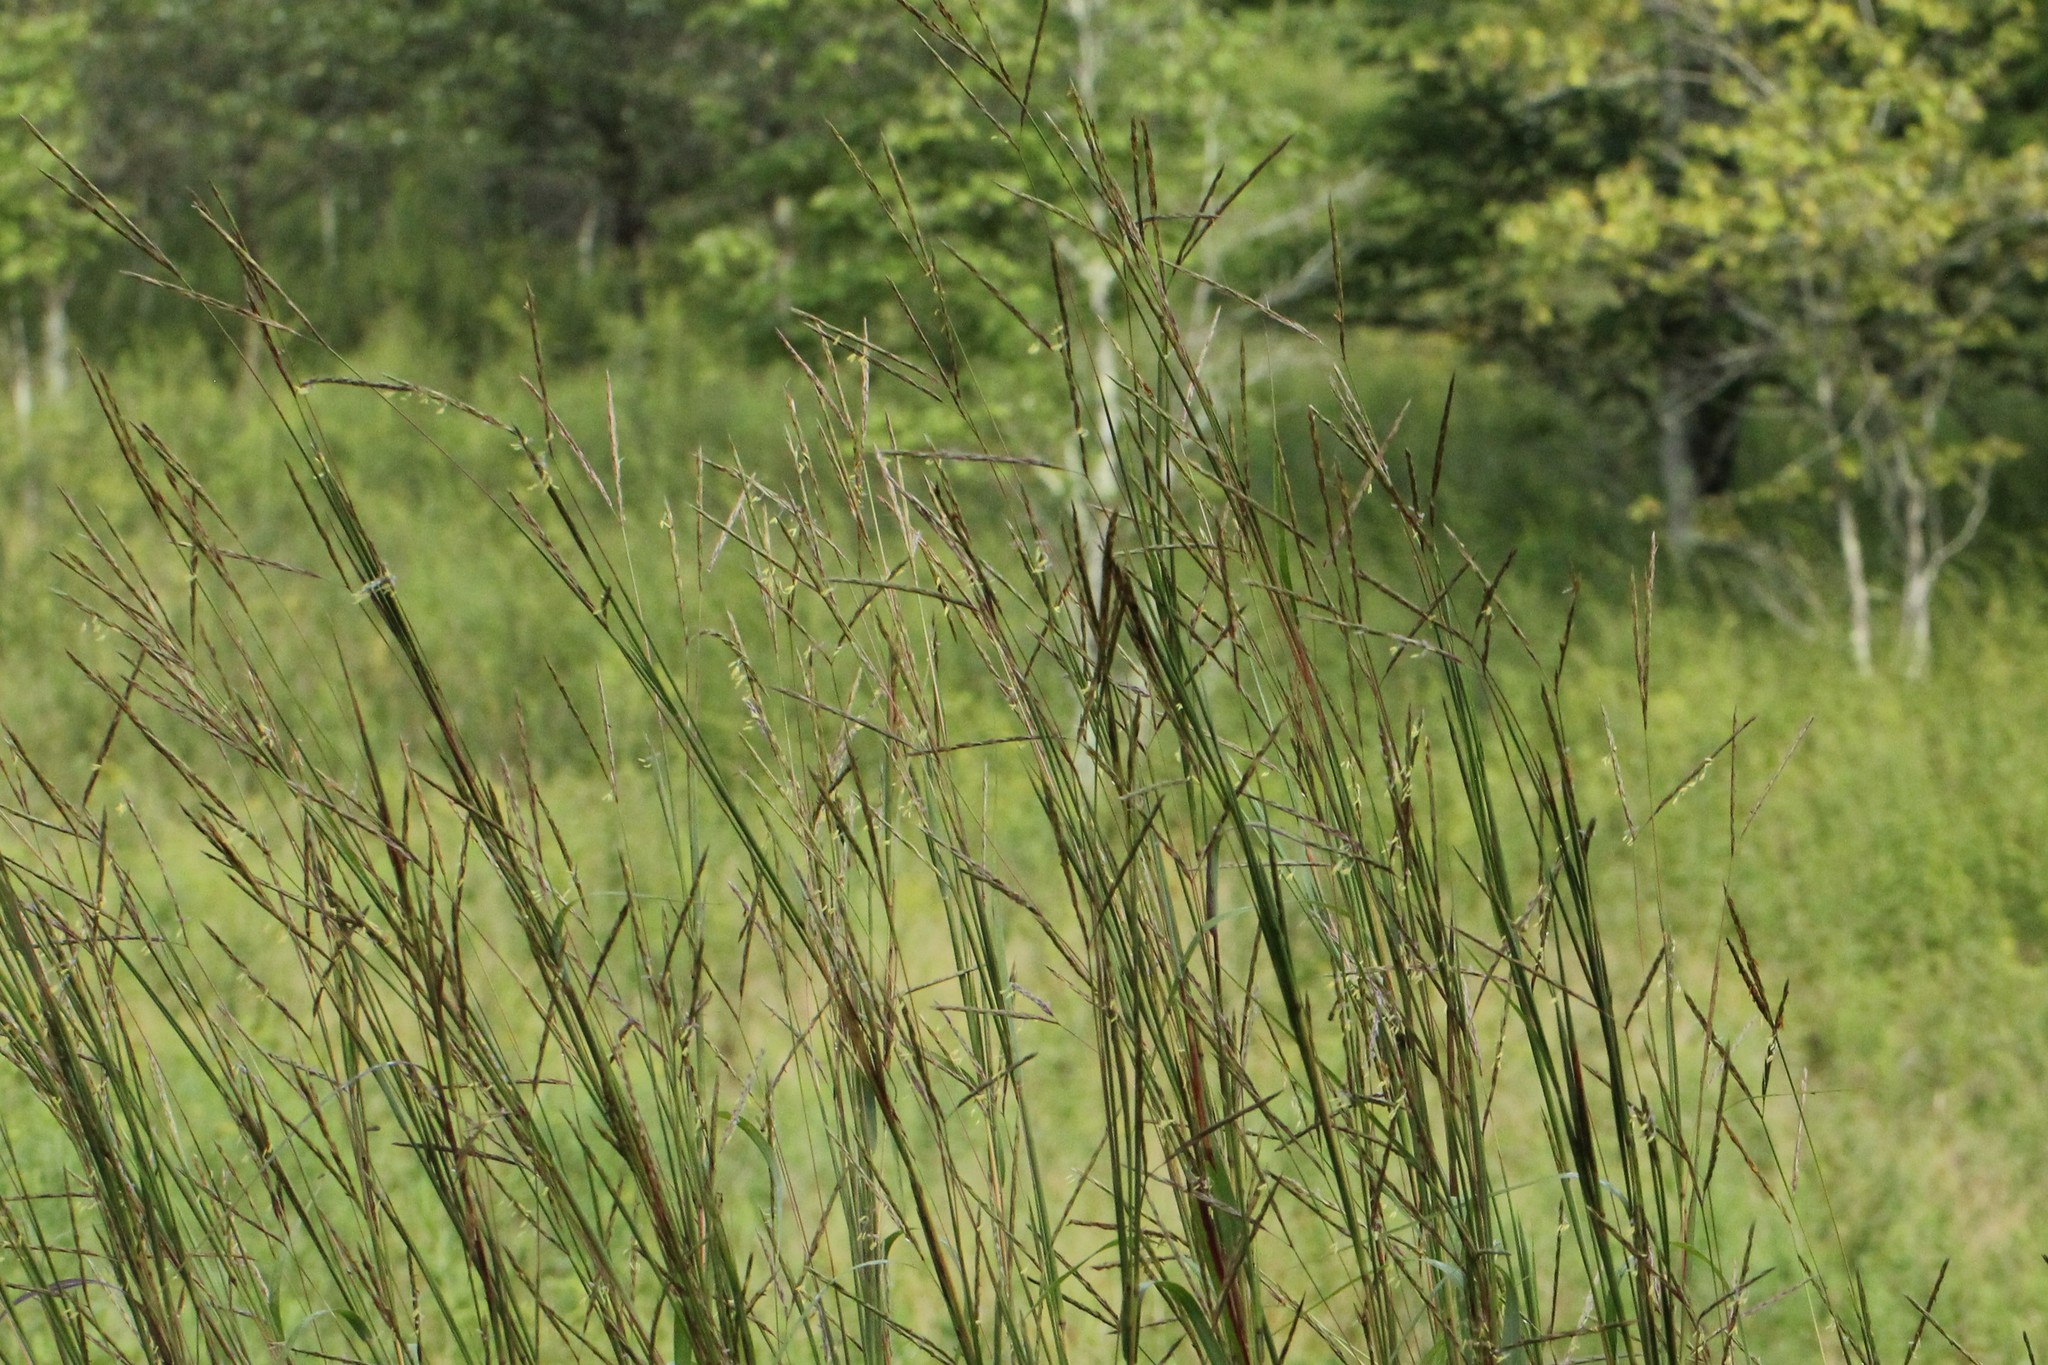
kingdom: Plantae
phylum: Tracheophyta
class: Liliopsida
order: Poales
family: Poaceae
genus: Andropogon
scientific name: Andropogon gerardi
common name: Big bluestem
